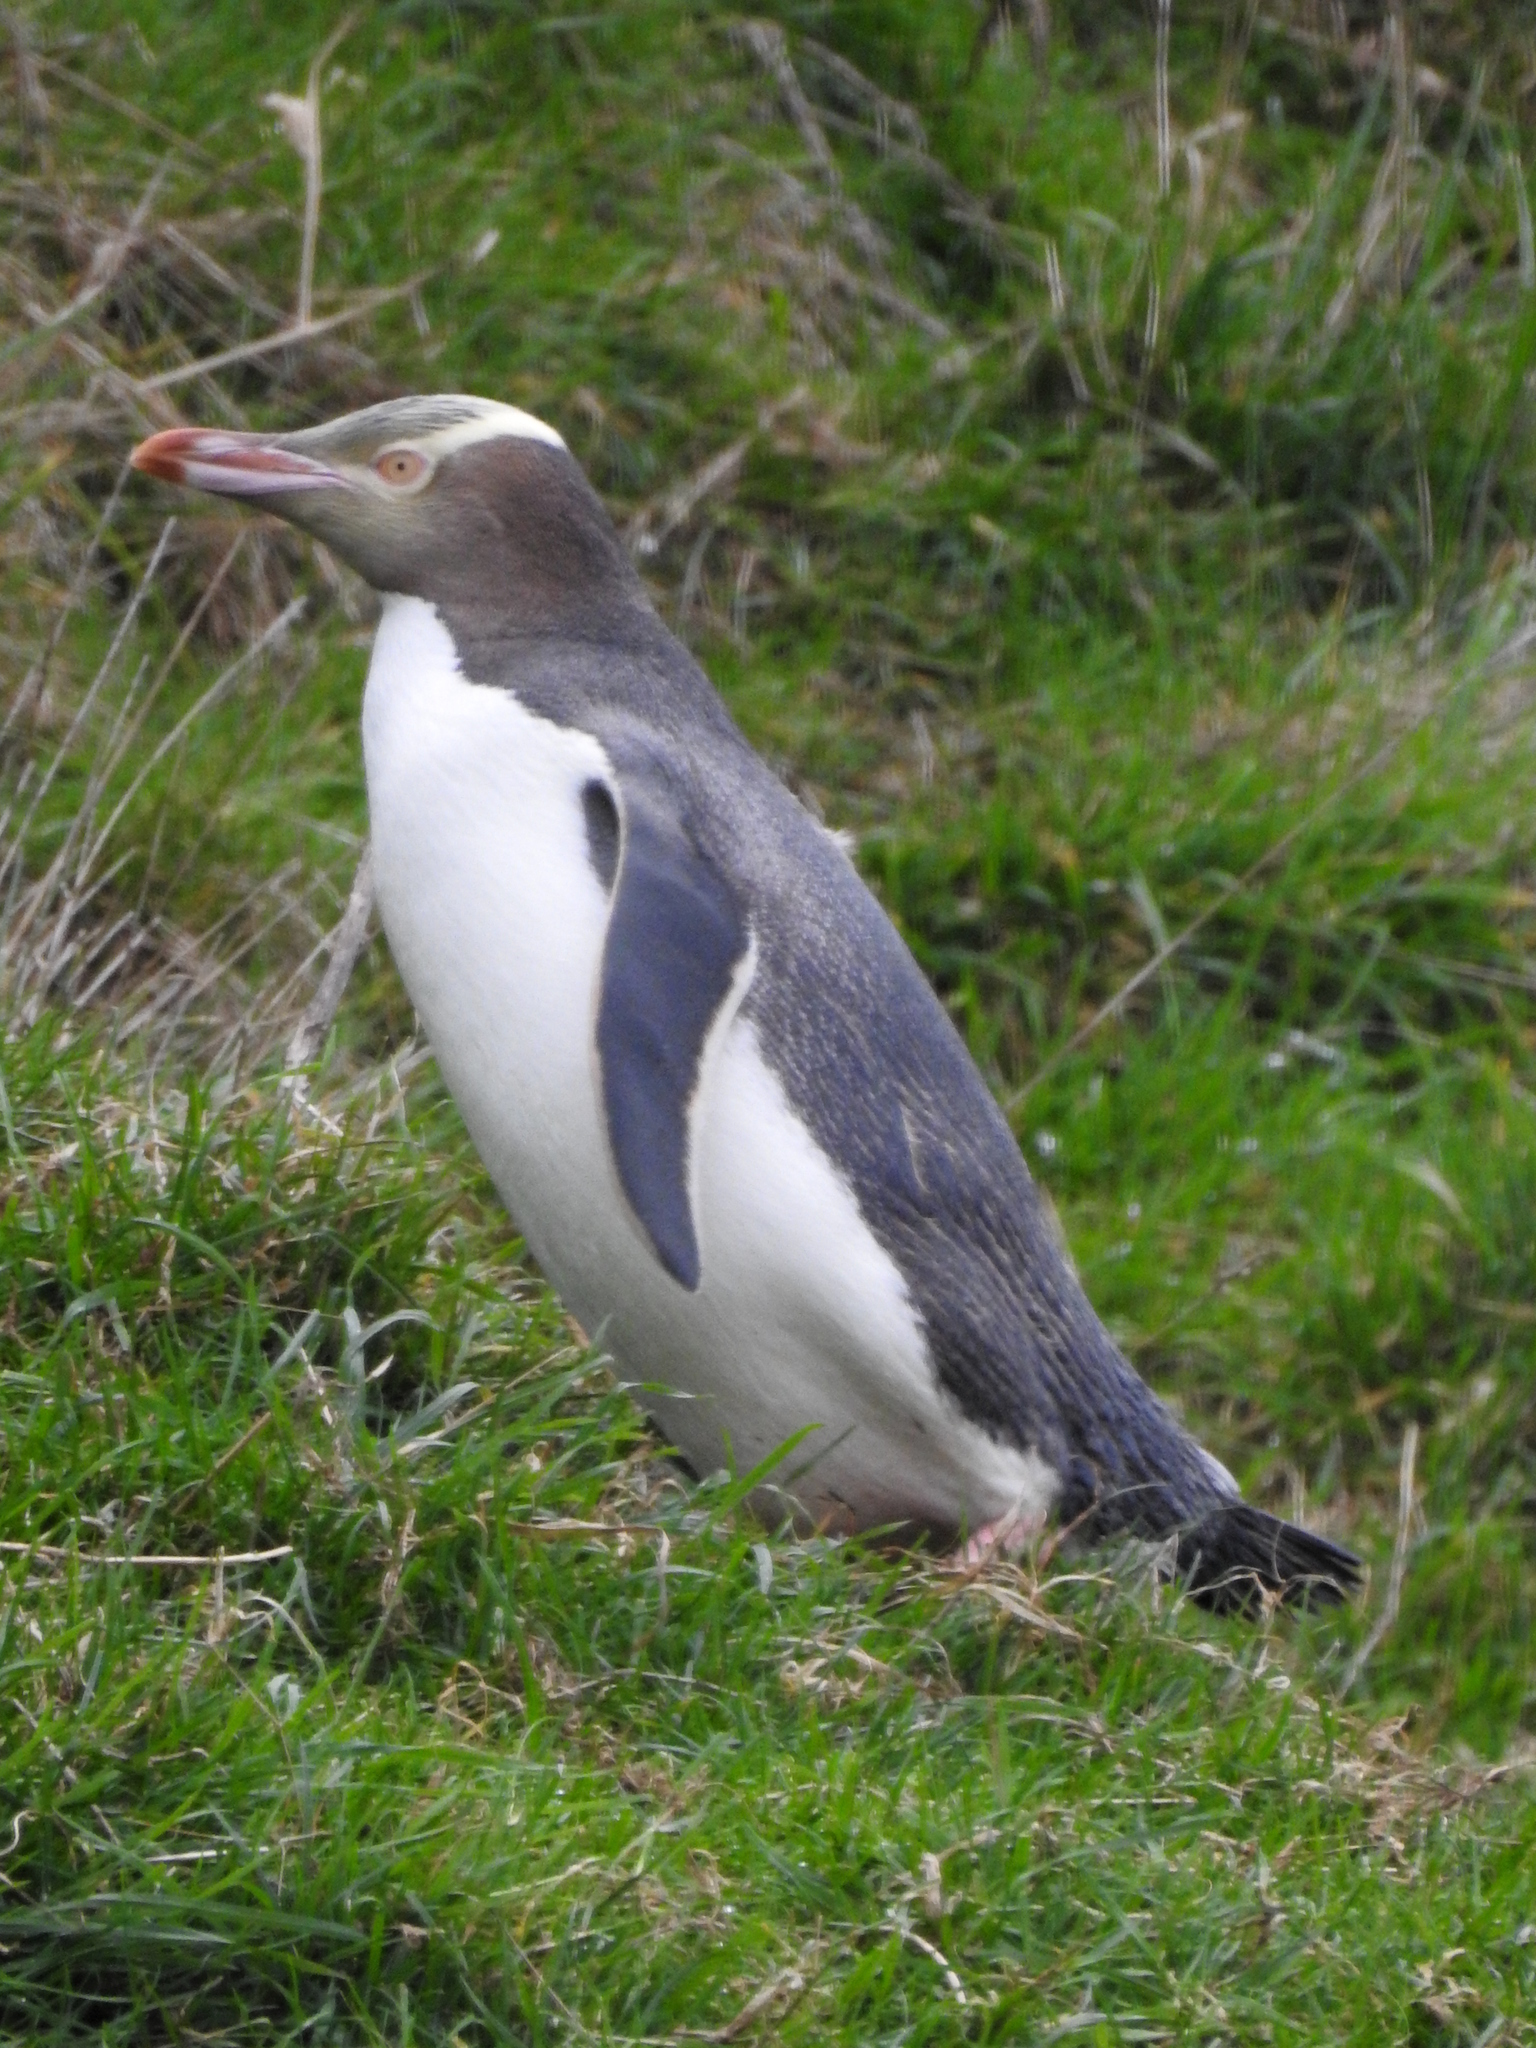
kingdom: Animalia
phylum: Chordata
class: Aves
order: Sphenisciformes
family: Spheniscidae
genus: Megadyptes
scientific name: Megadyptes antipodes
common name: Yellow-eyed penguin
